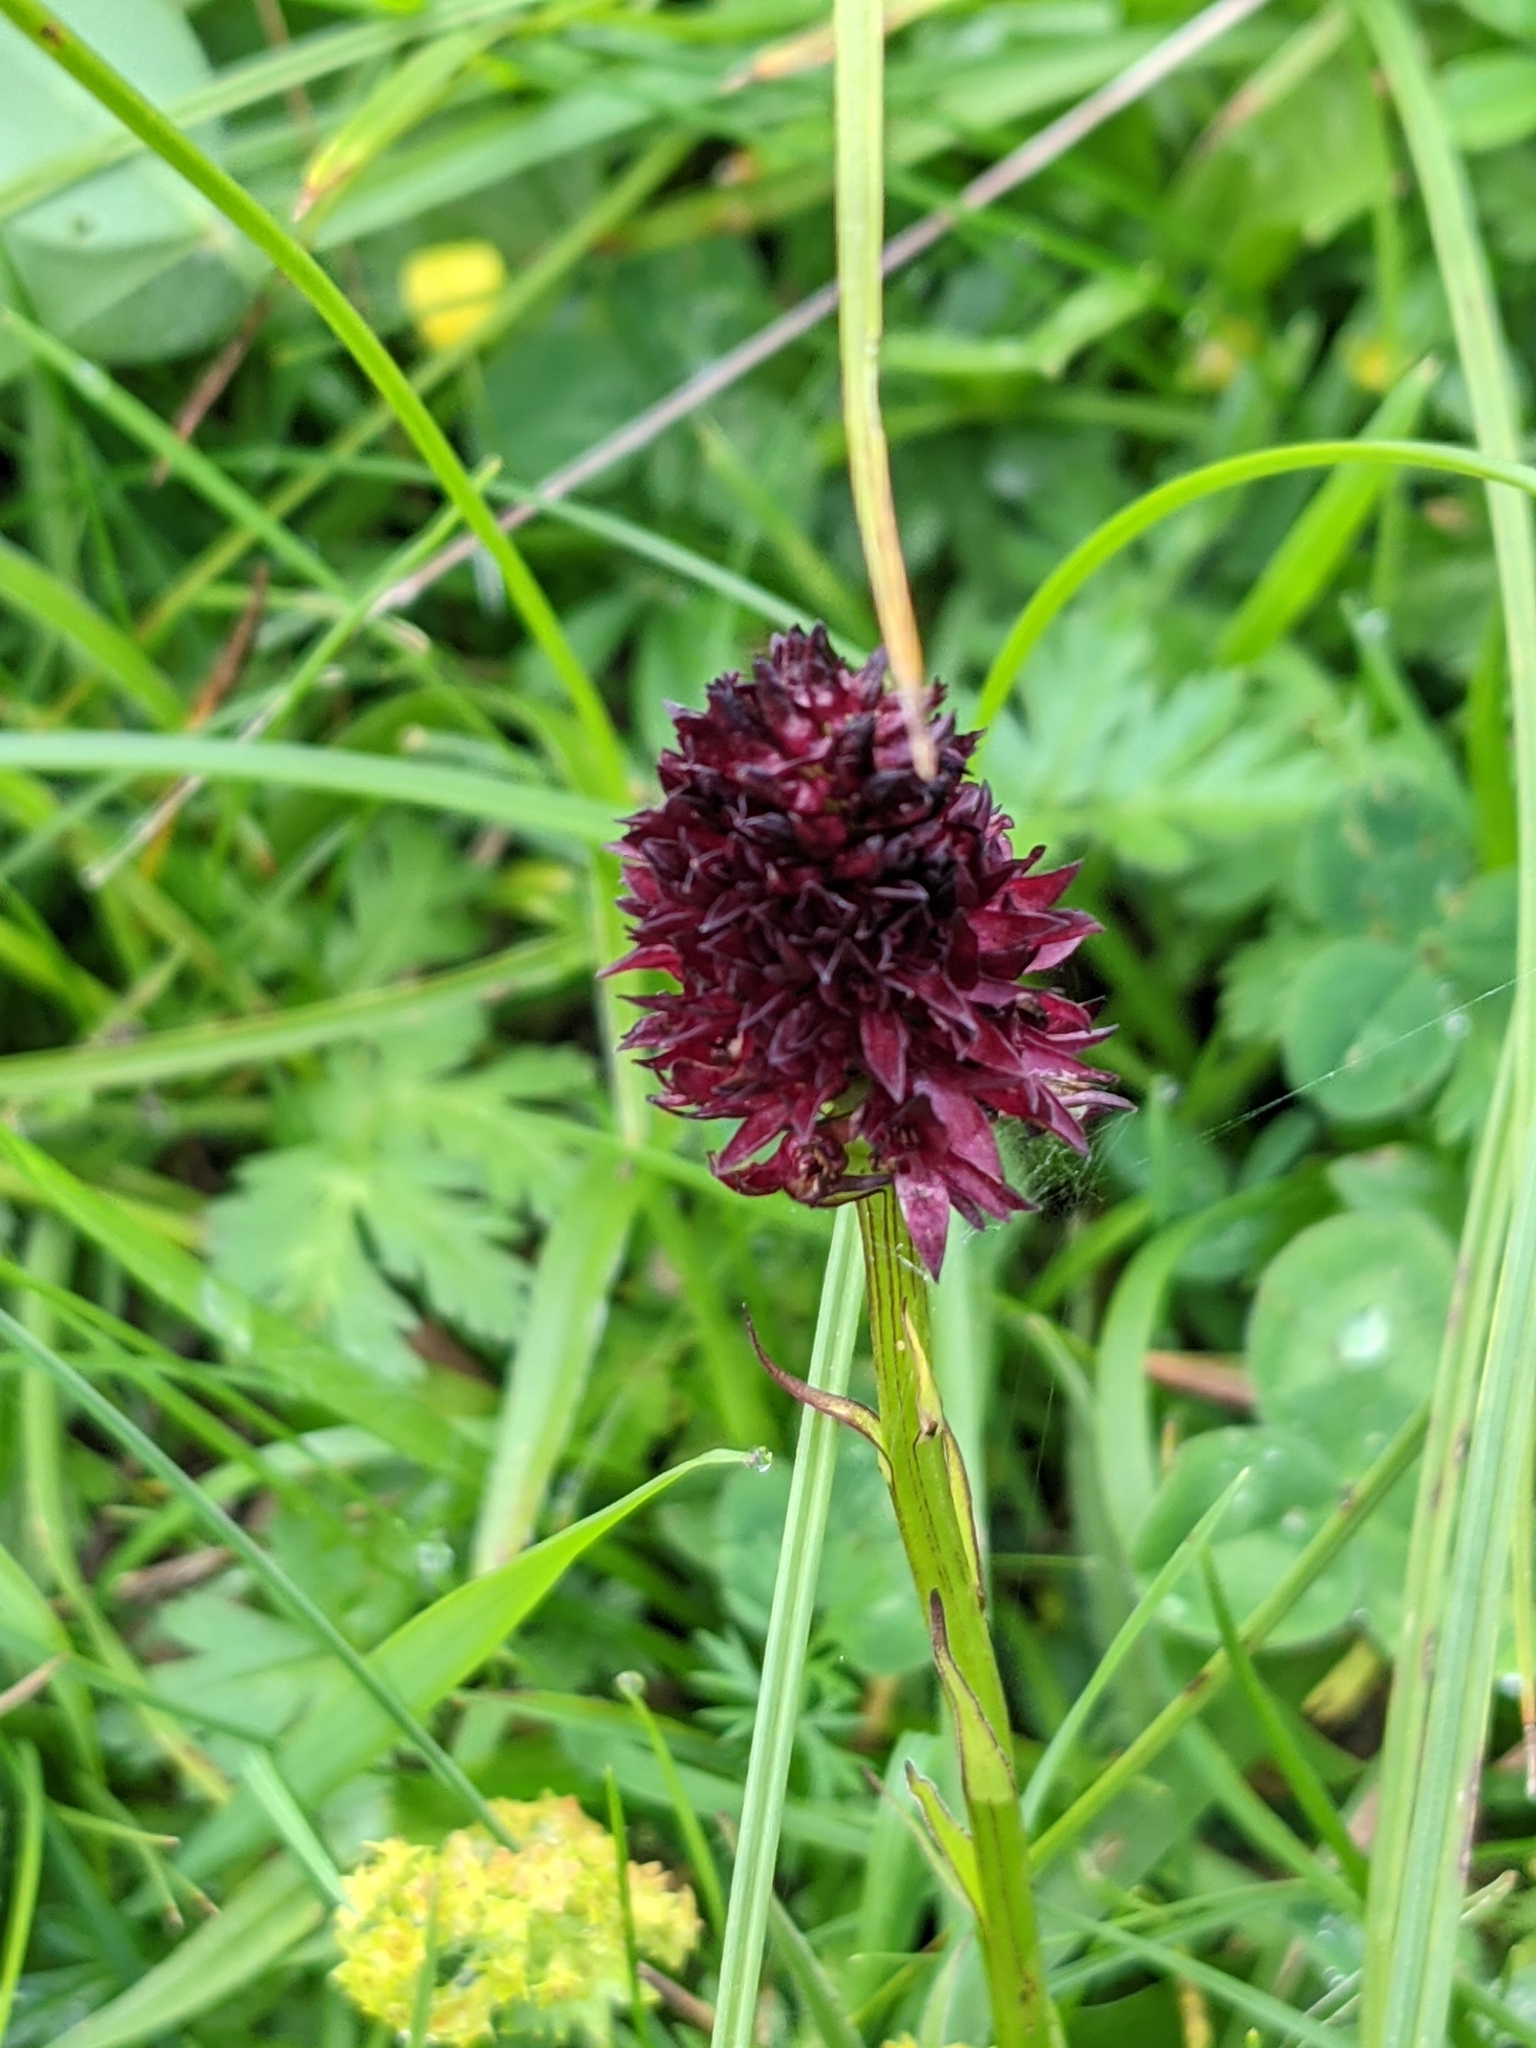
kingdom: Plantae
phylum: Tracheophyta
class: Liliopsida
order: Asparagales
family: Orchidaceae
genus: Gymnadenia
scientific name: Gymnadenia rhellicani
